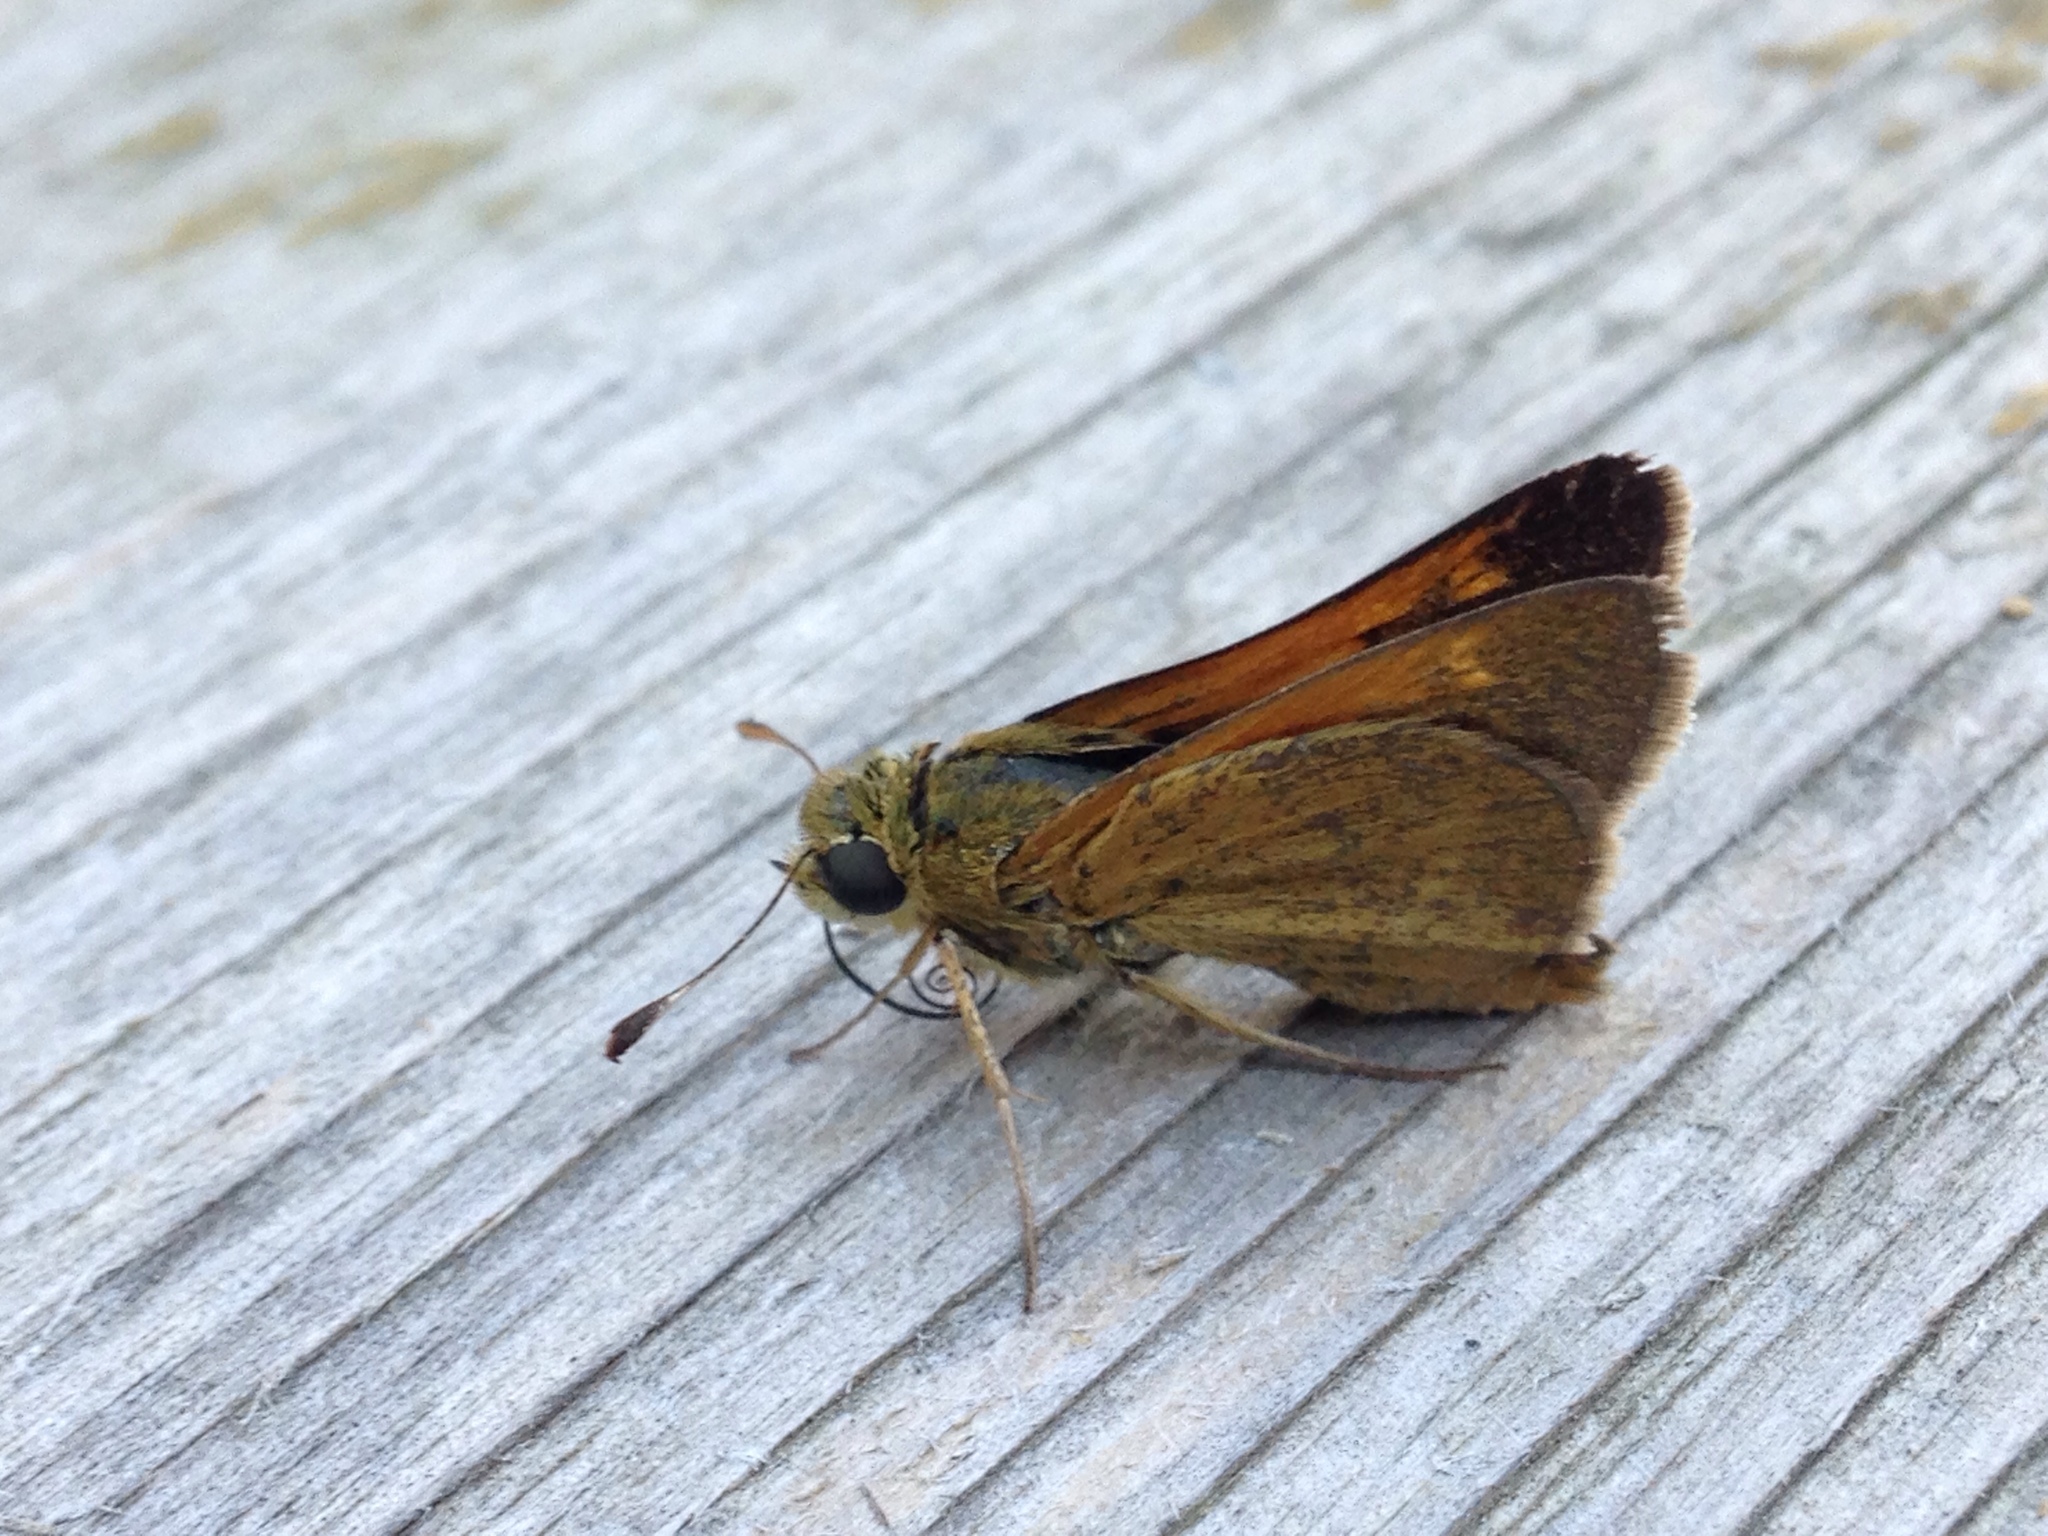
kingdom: Animalia
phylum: Arthropoda
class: Insecta
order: Lepidoptera
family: Hesperiidae
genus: Polites
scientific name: Polites themistocles
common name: Tawny-edged skipper
